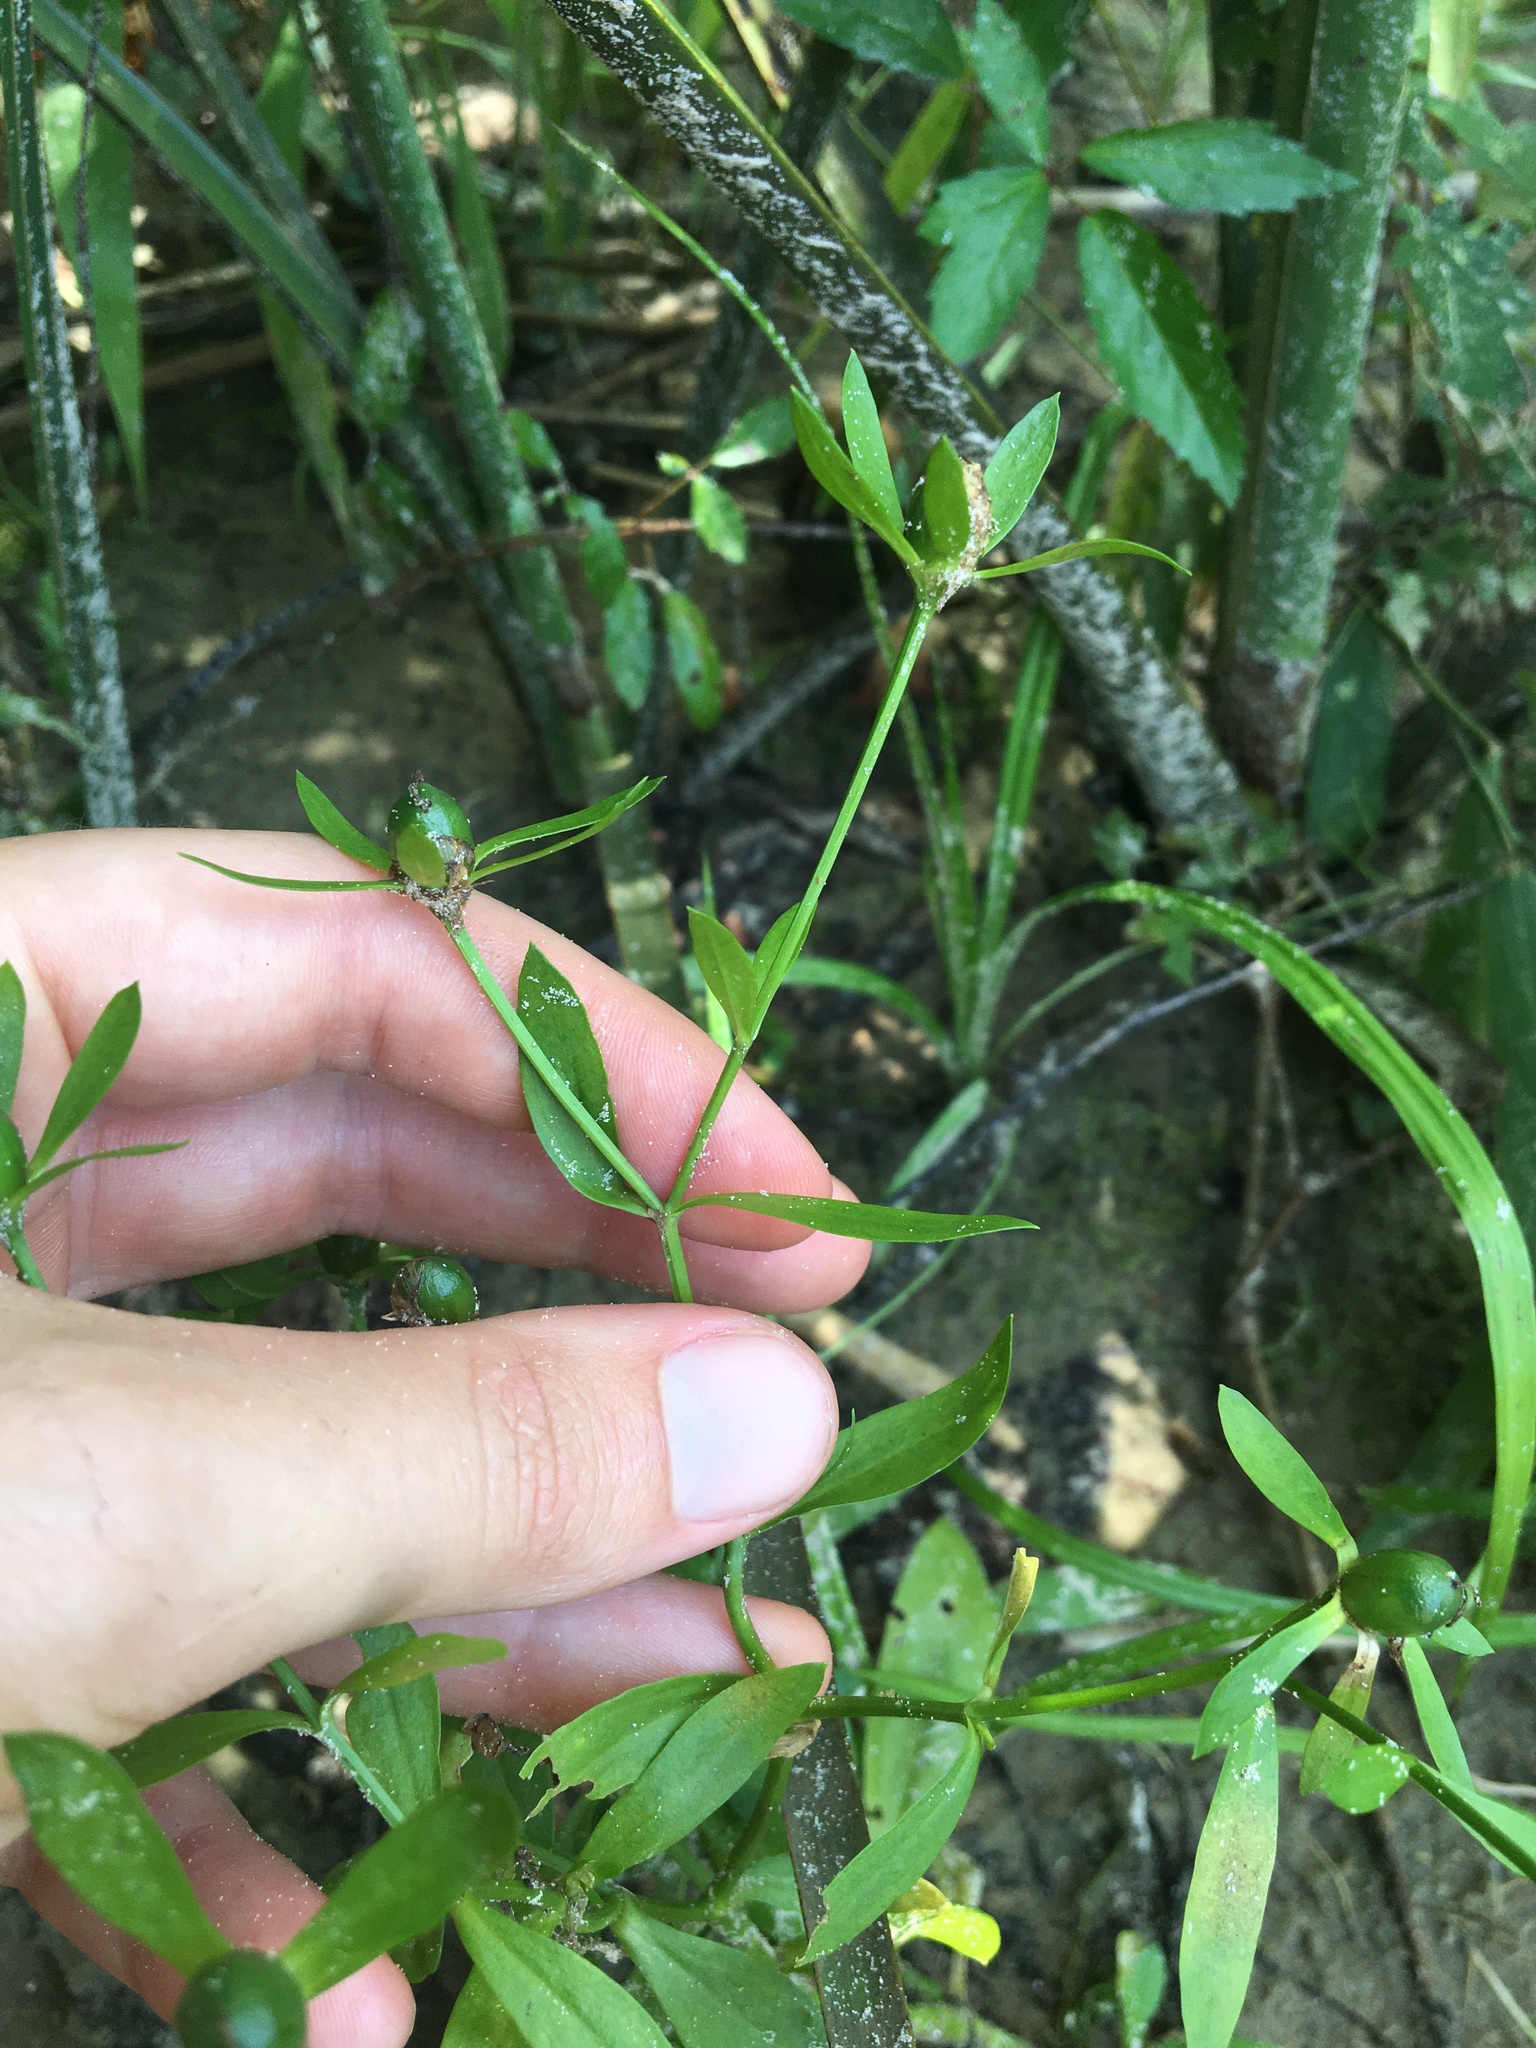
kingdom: Plantae
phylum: Tracheophyta
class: Magnoliopsida
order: Gentianales
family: Gentianaceae
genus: Sabatia
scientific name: Sabatia calycina
